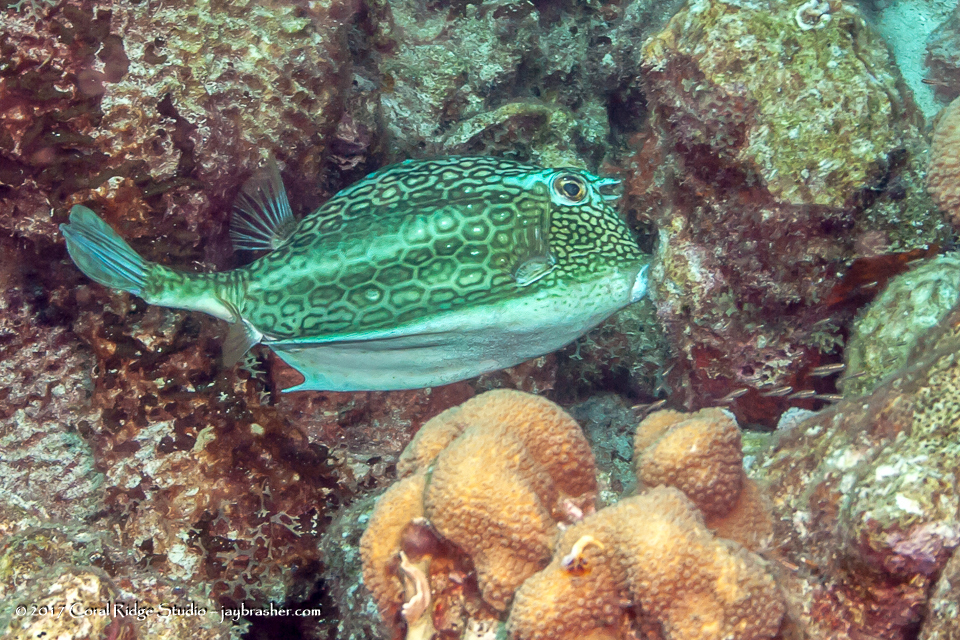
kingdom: Animalia
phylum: Chordata
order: Tetraodontiformes
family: Ostraciidae
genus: Acanthostracion
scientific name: Acanthostracion polygonius
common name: Honeycomb cowfish
